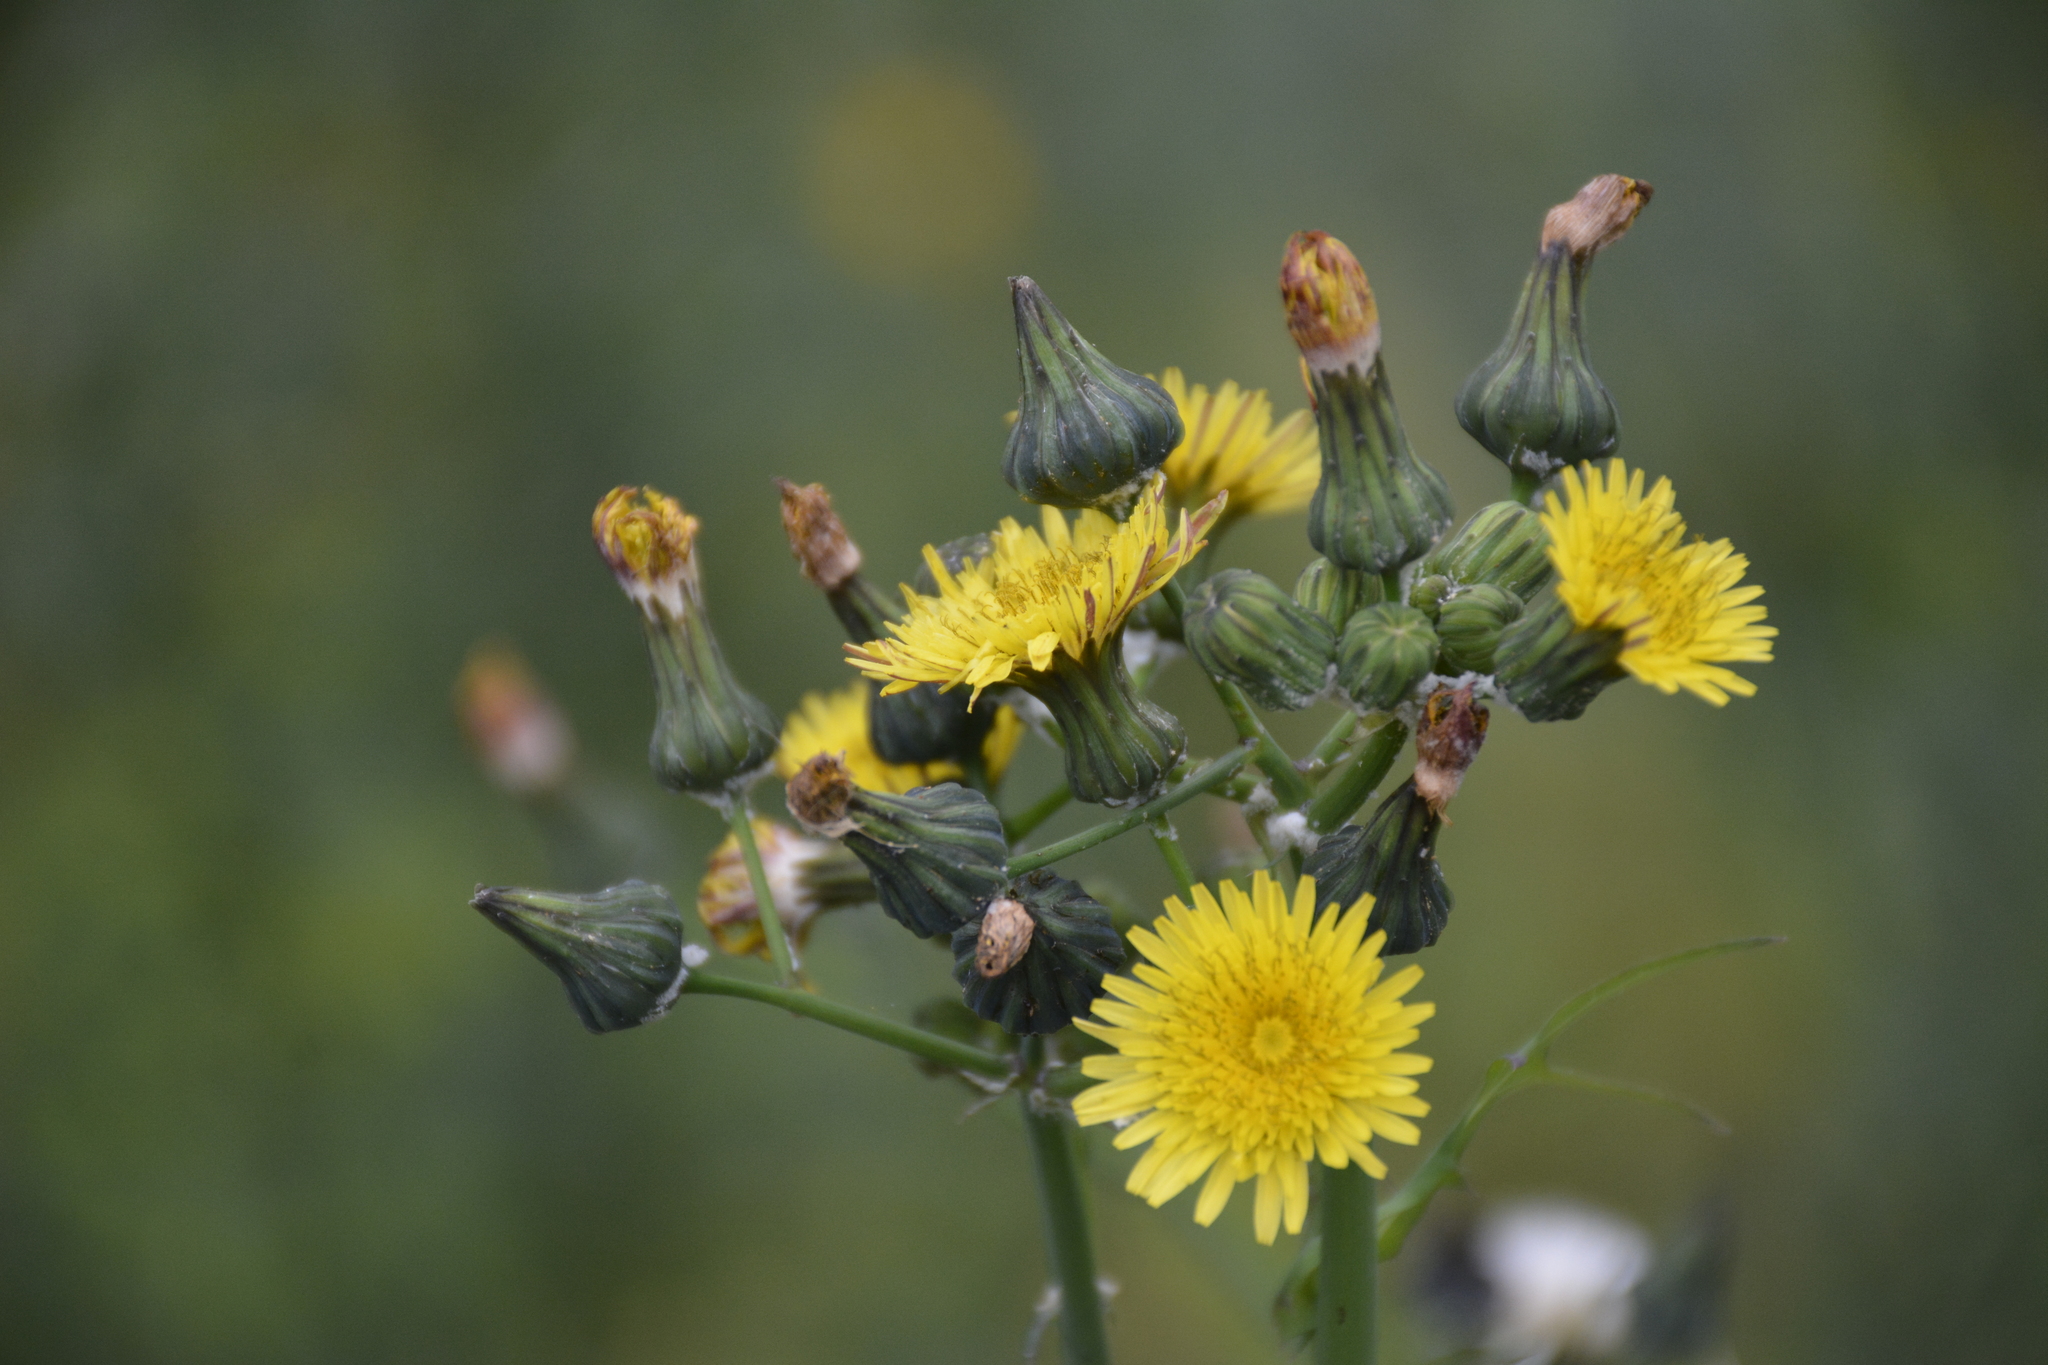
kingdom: Plantae
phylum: Tracheophyta
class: Magnoliopsida
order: Asterales
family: Asteraceae
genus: Sonchus
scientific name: Sonchus oleraceus
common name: Common sowthistle
